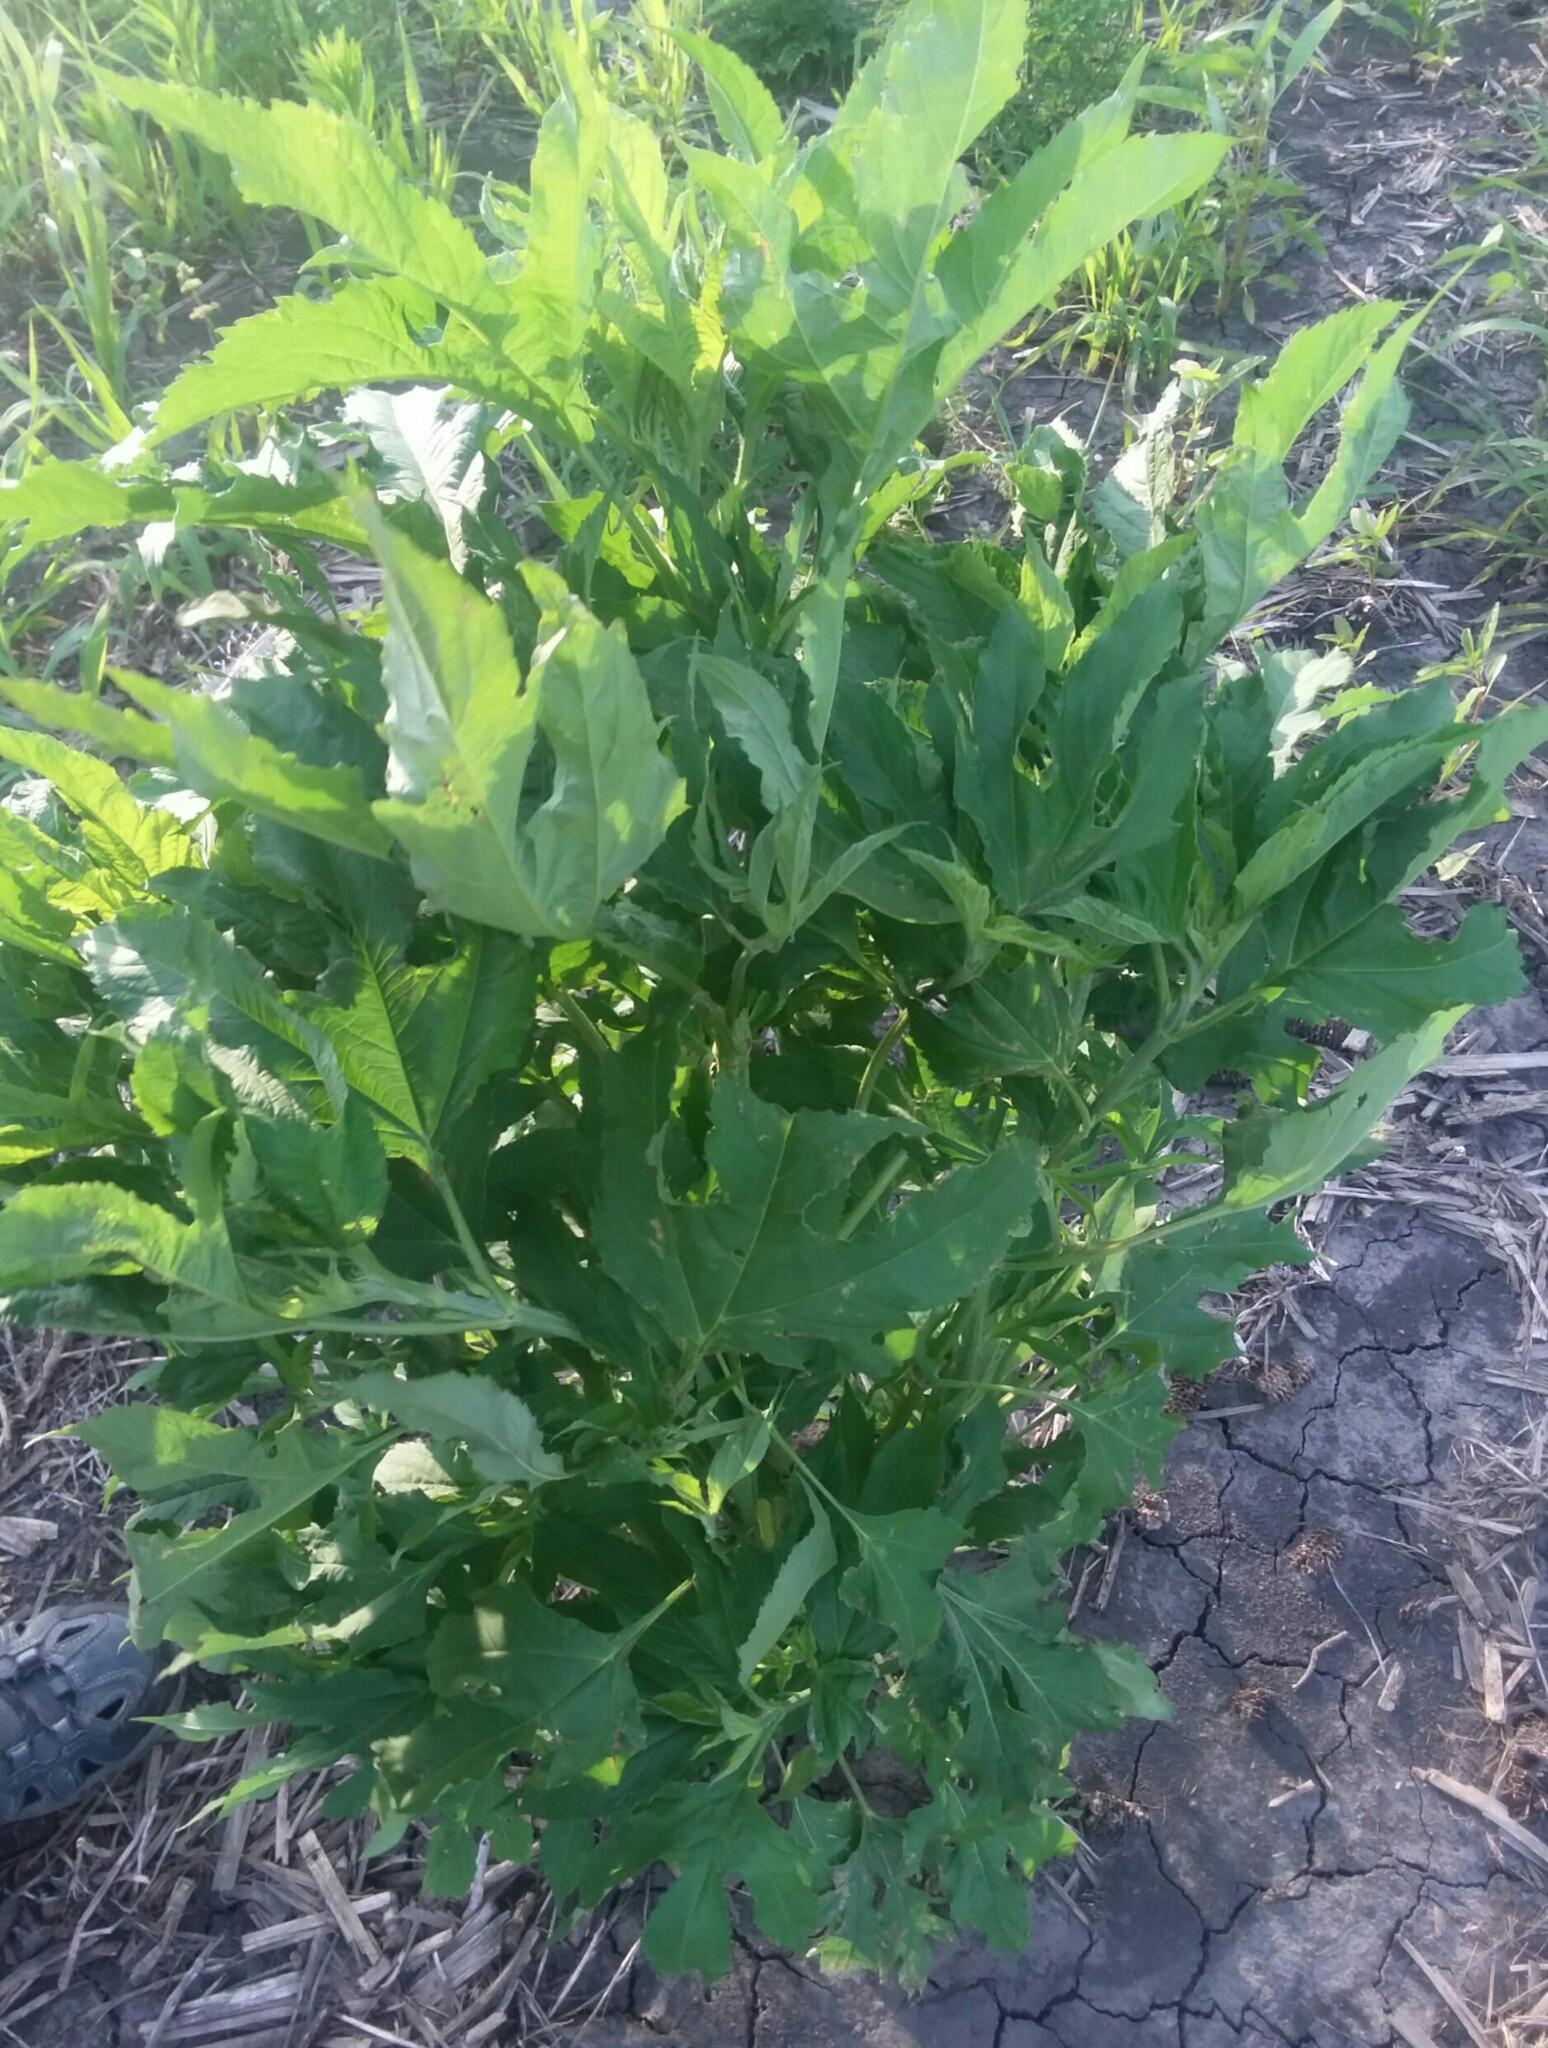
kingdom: Plantae
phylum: Tracheophyta
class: Magnoliopsida
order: Asterales
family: Asteraceae
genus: Ambrosia
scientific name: Ambrosia trifida
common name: Giant ragweed
